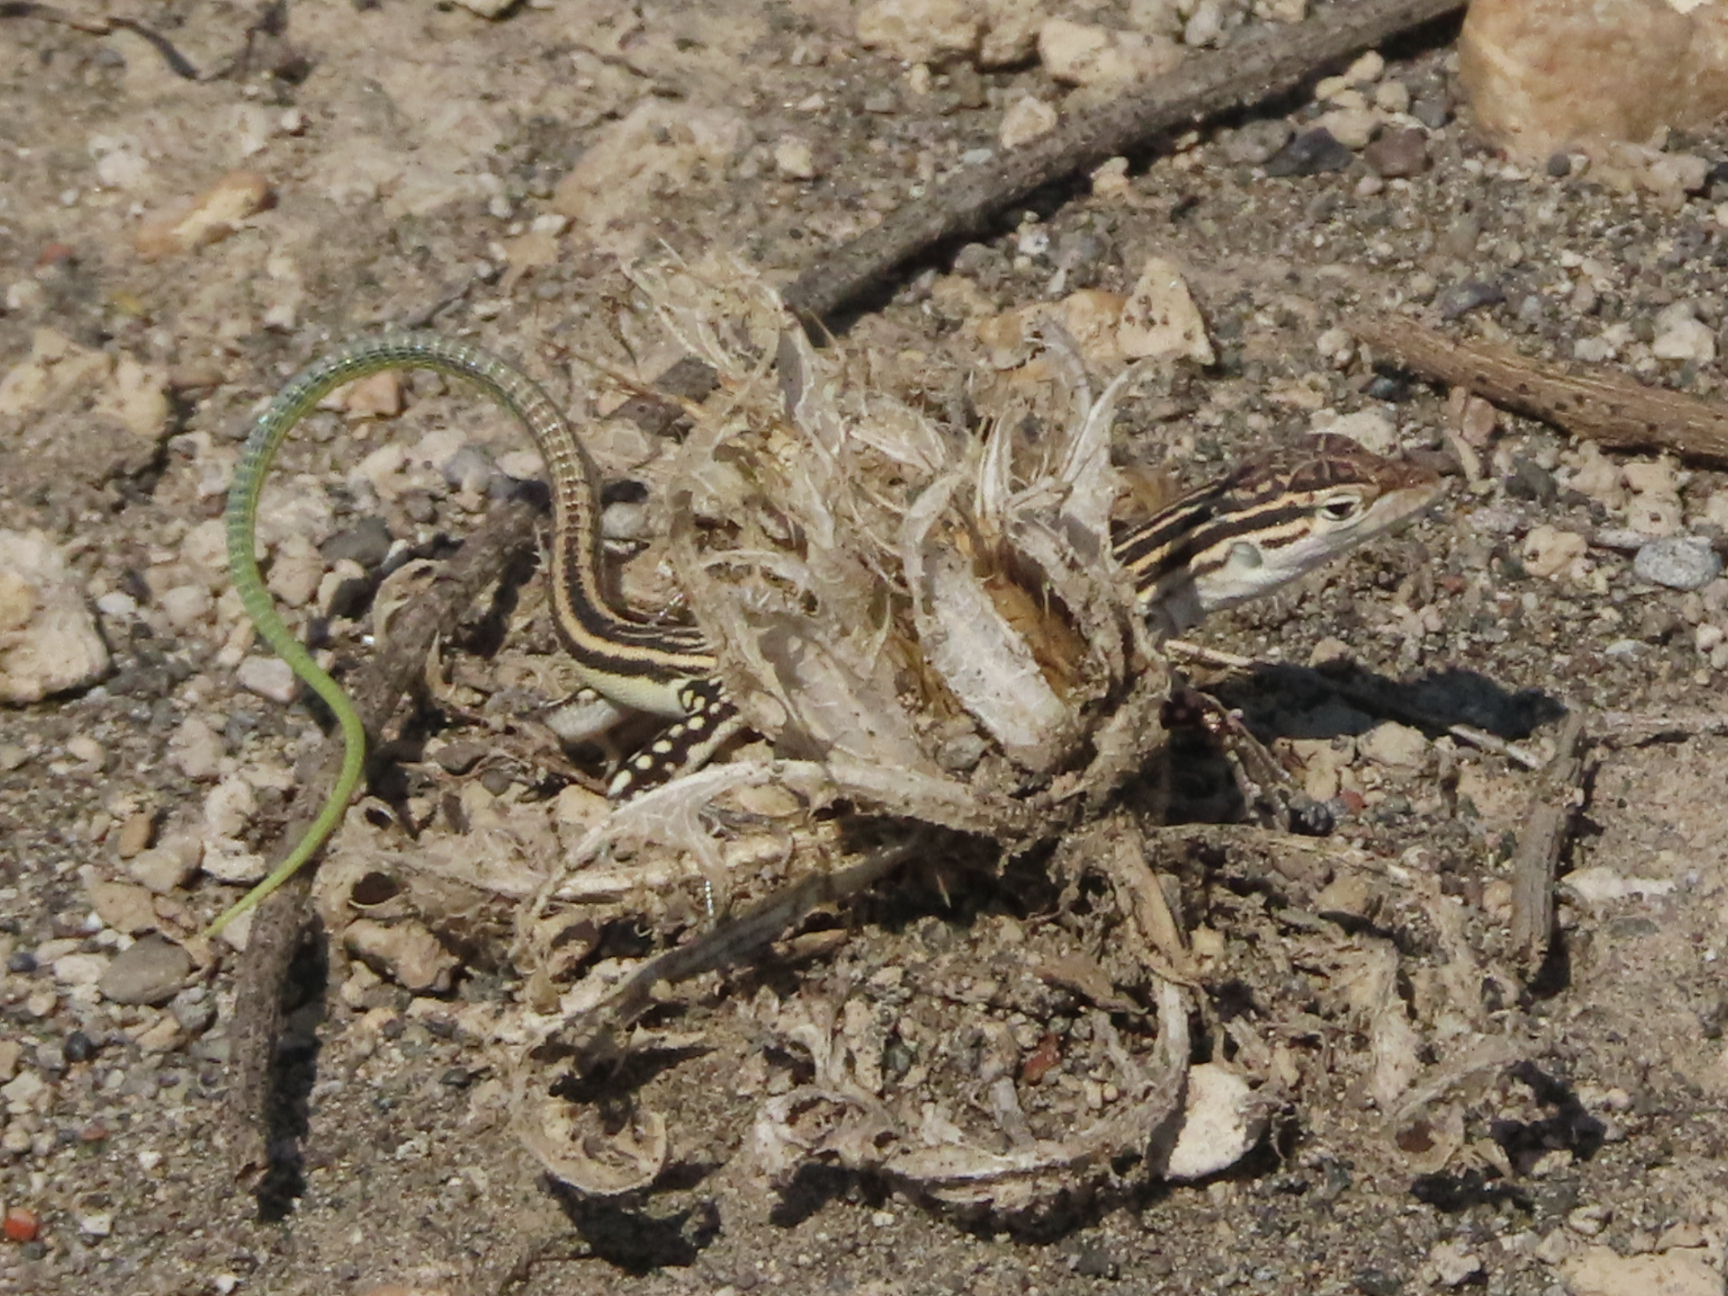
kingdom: Animalia
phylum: Chordata
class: Squamata
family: Lacertidae
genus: Eremias
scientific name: Eremias pleskei
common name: Pleske's racerunner
